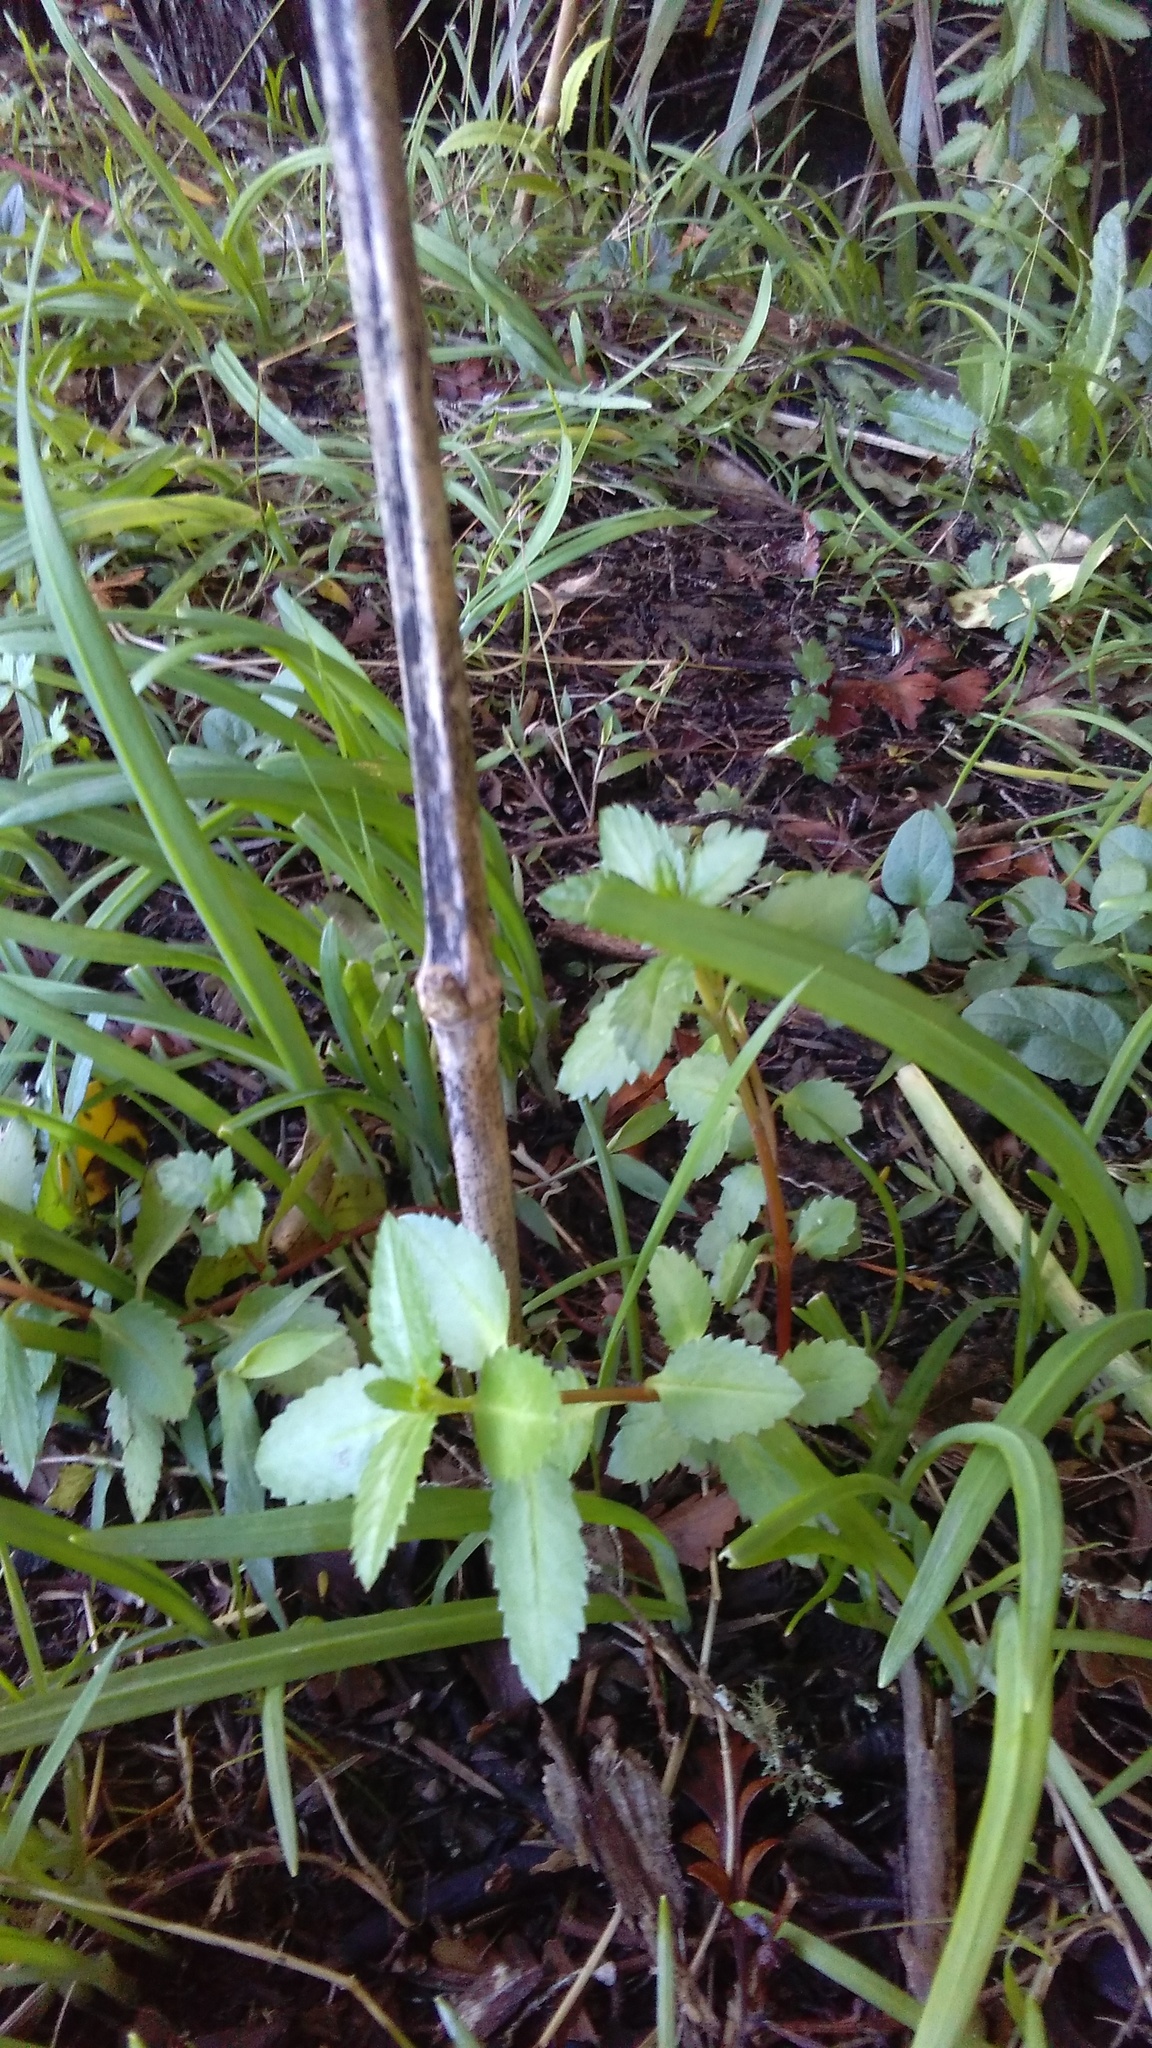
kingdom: Plantae
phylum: Tracheophyta
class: Magnoliopsida
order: Saxifragales
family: Haloragaceae
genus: Haloragis
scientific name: Haloragis erecta
